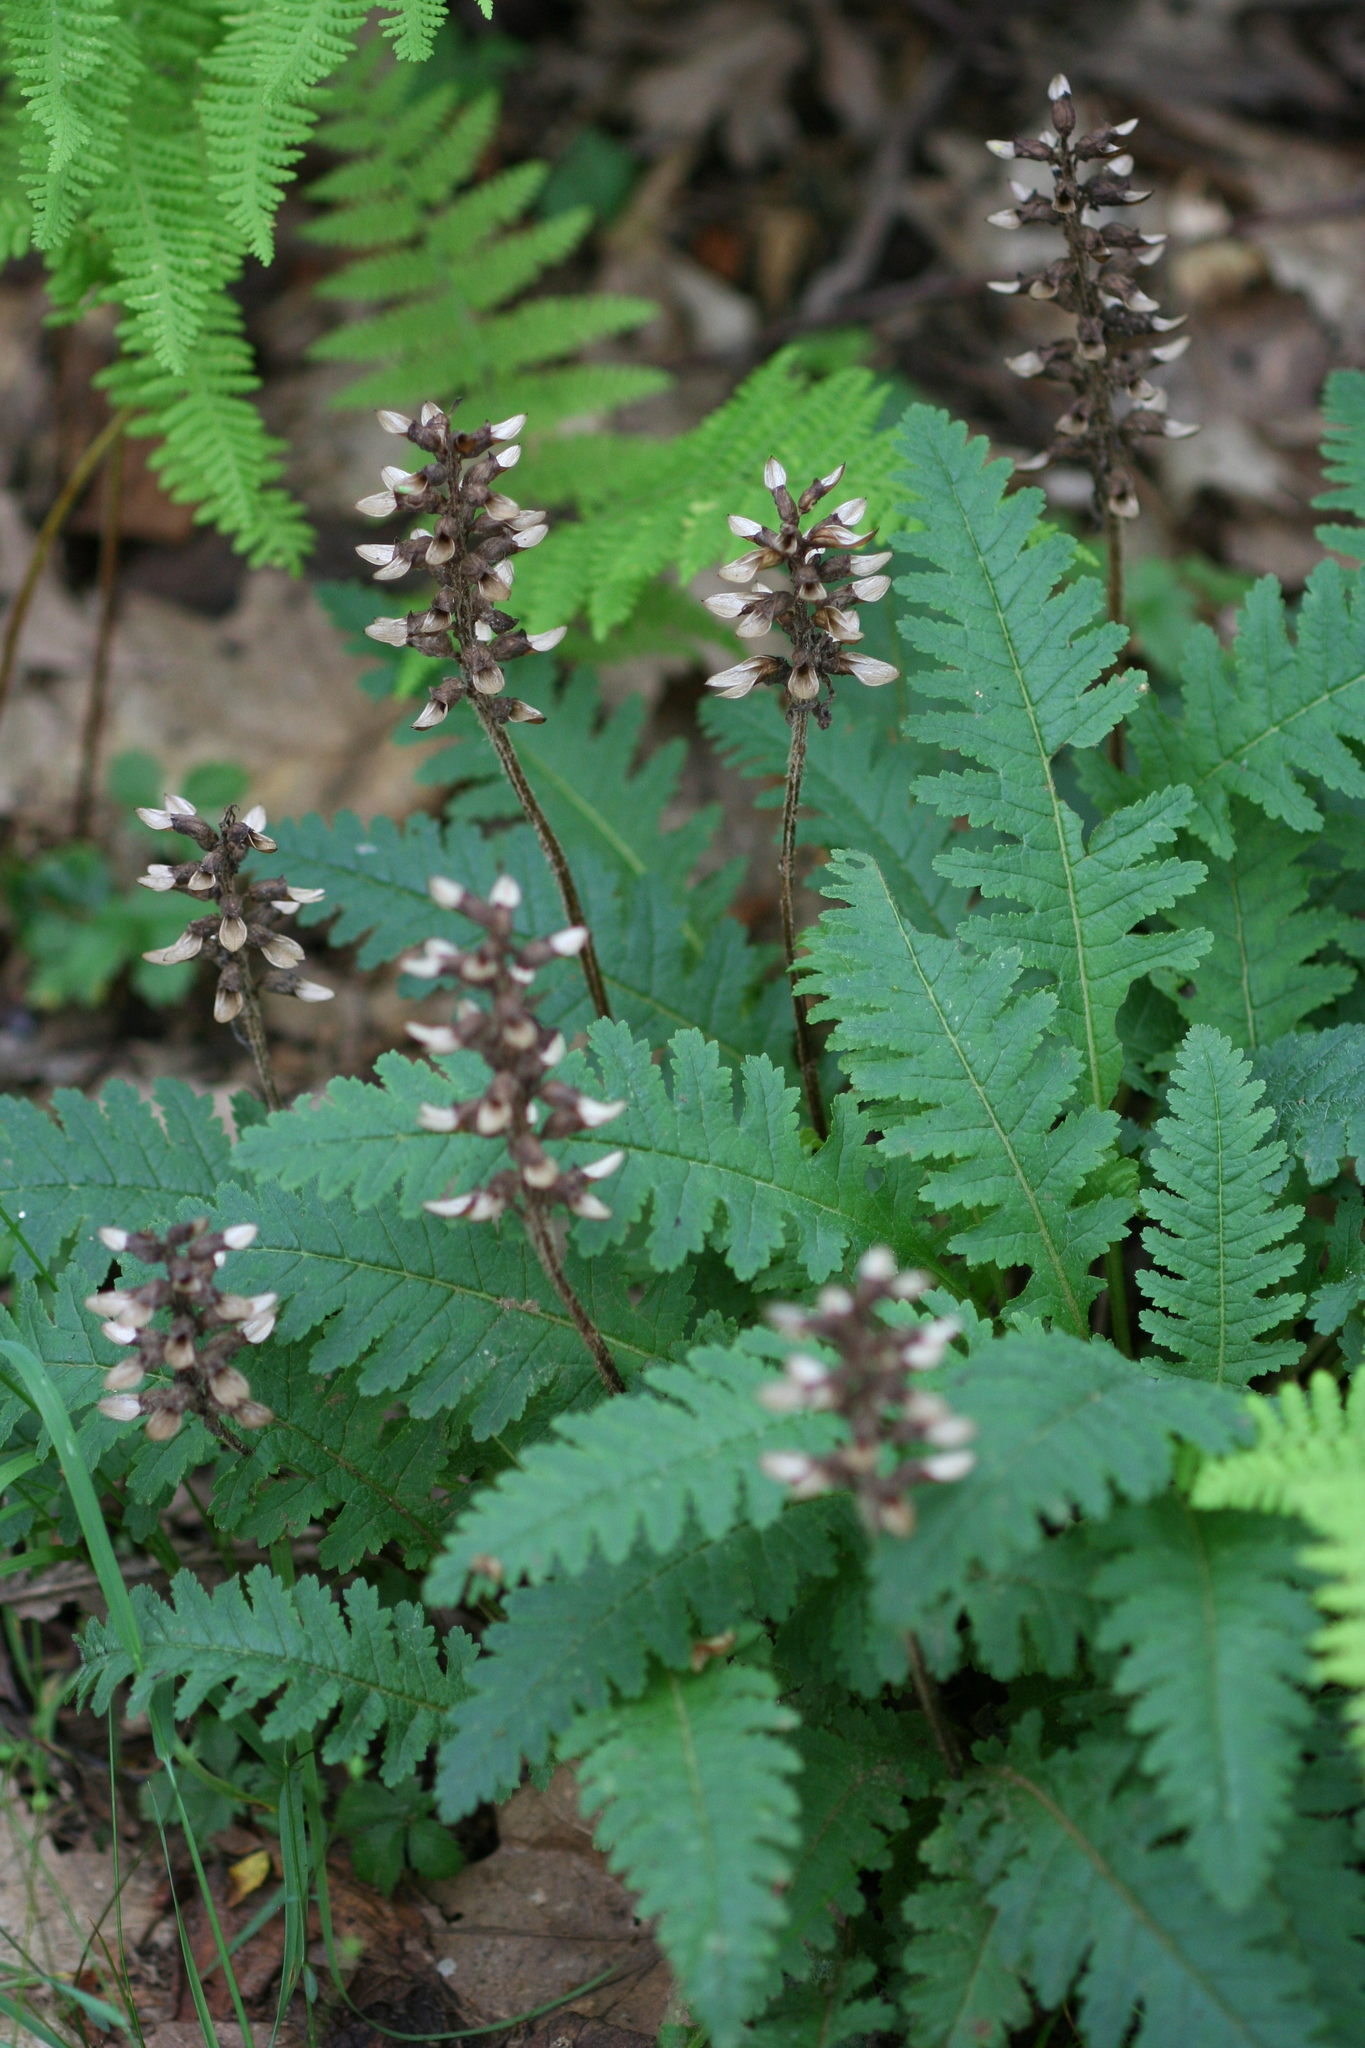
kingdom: Plantae
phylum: Tracheophyta
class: Magnoliopsida
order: Lamiales
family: Orobanchaceae
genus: Pedicularis
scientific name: Pedicularis canadensis
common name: Early lousewort
